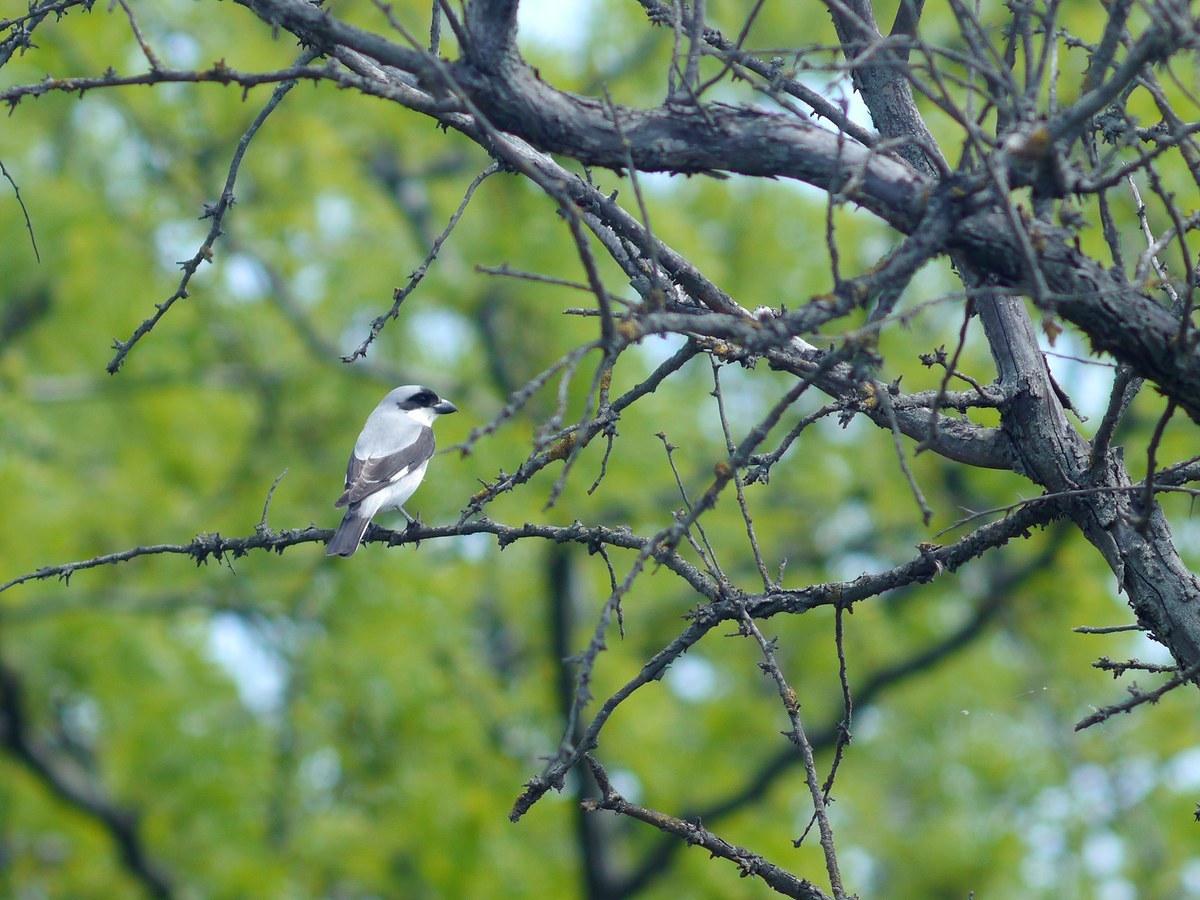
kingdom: Animalia
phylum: Chordata
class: Aves
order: Passeriformes
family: Laniidae
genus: Lanius
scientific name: Lanius minor
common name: Lesser grey shrike
